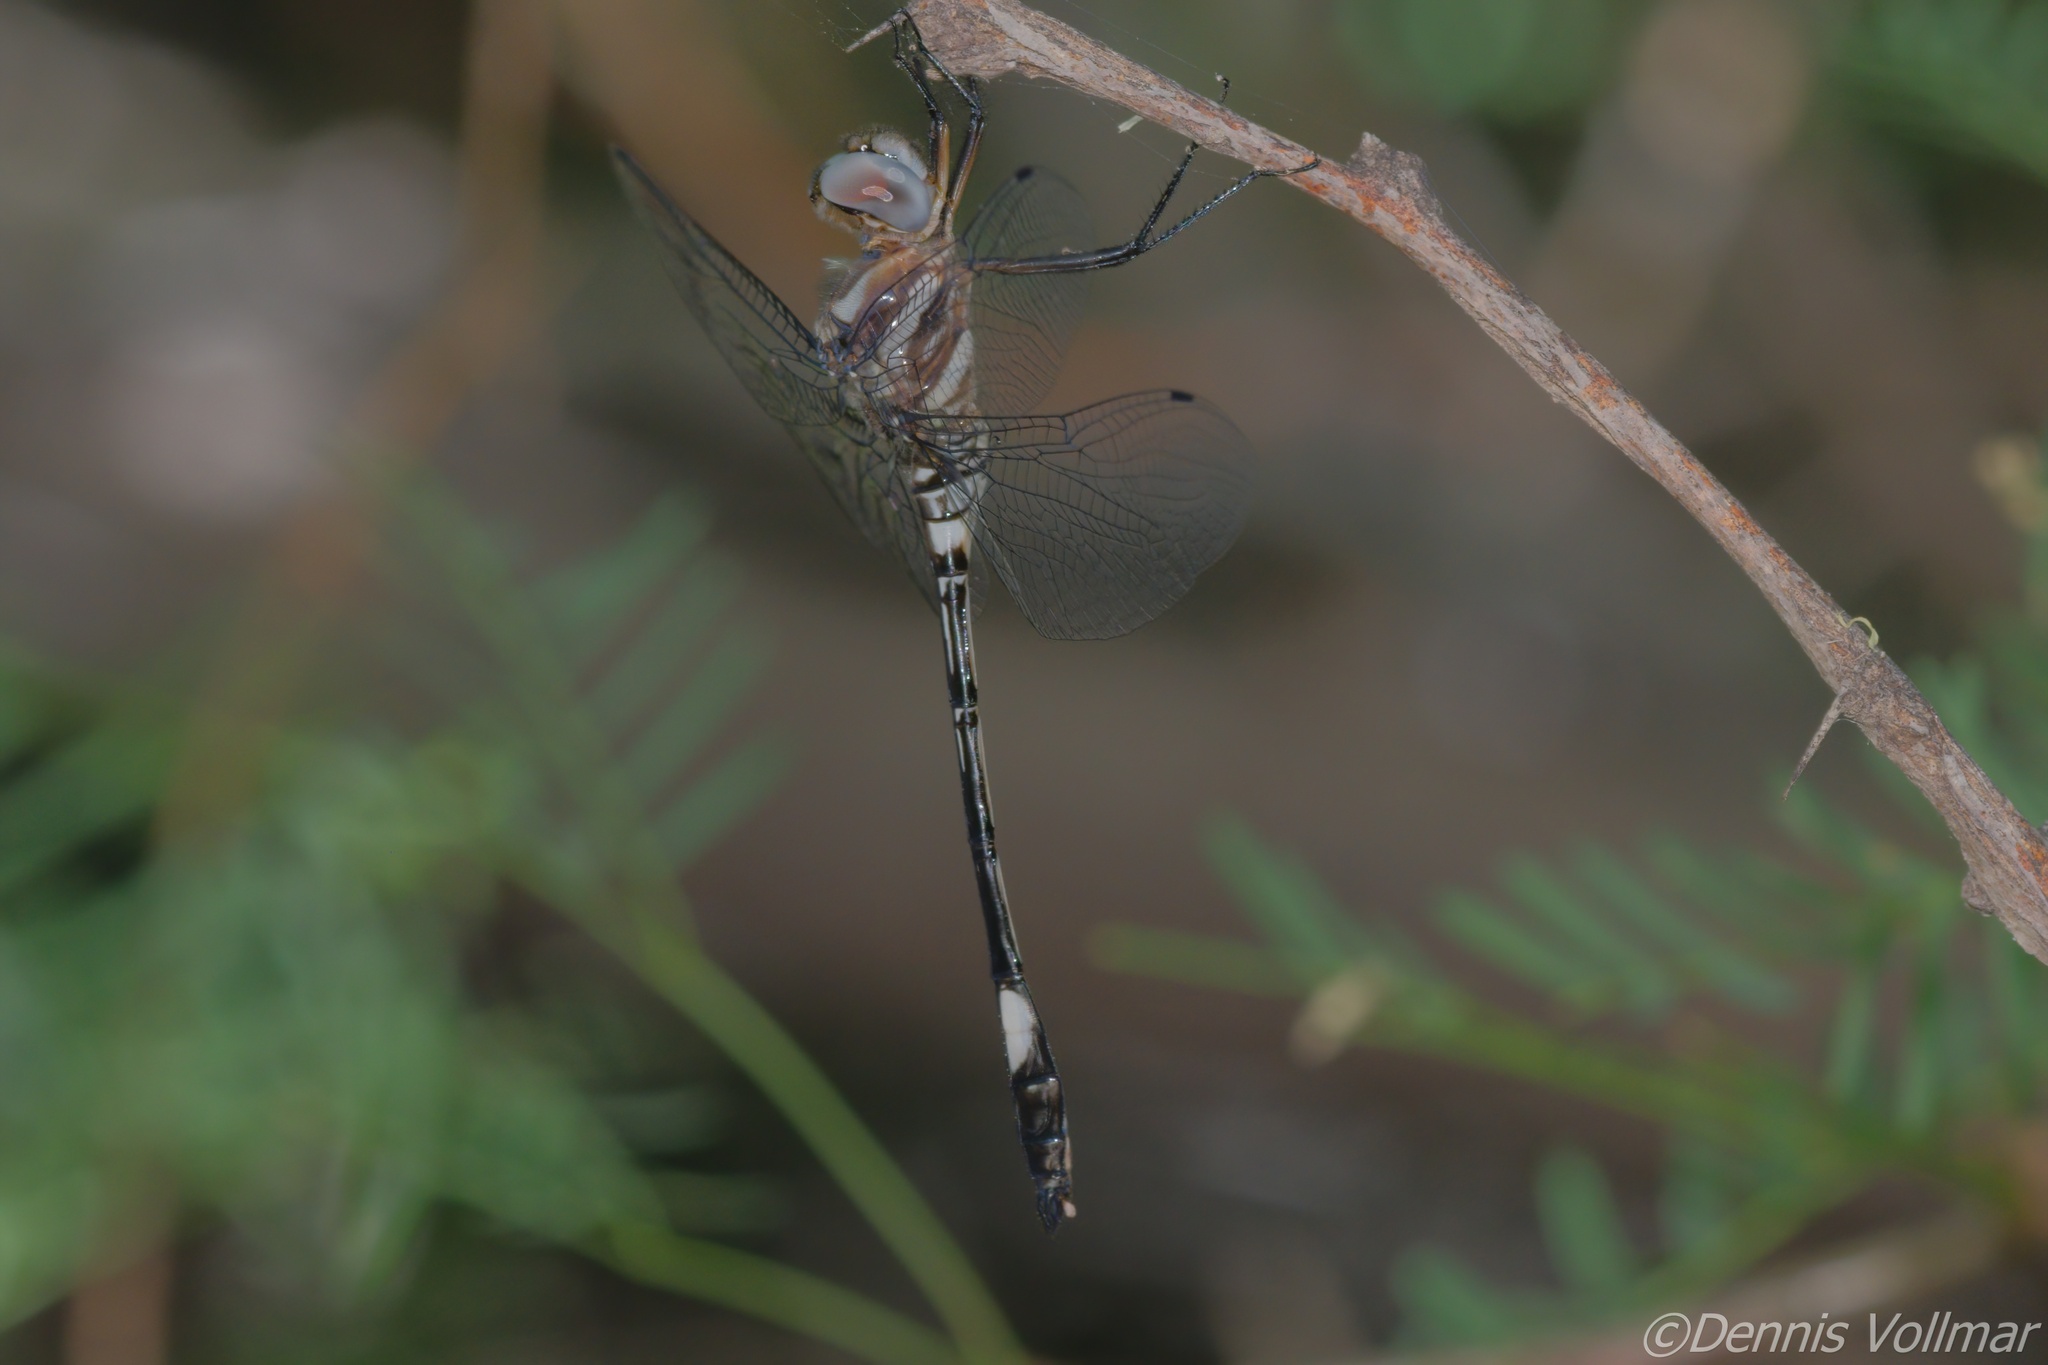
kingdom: Animalia
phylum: Arthropoda
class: Insecta
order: Odonata
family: Libellulidae
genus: Brechmorhoga
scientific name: Brechmorhoga mendax
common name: Pale-faced clubskimmer
